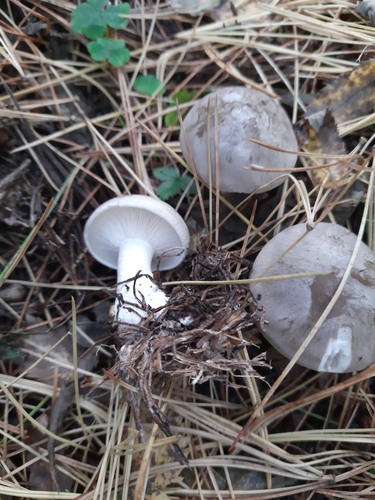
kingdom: Fungi
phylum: Basidiomycota
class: Agaricomycetes
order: Agaricales
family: Tricholomataceae
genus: Clitocybe
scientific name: Clitocybe nebularis
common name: Clouded agaric
